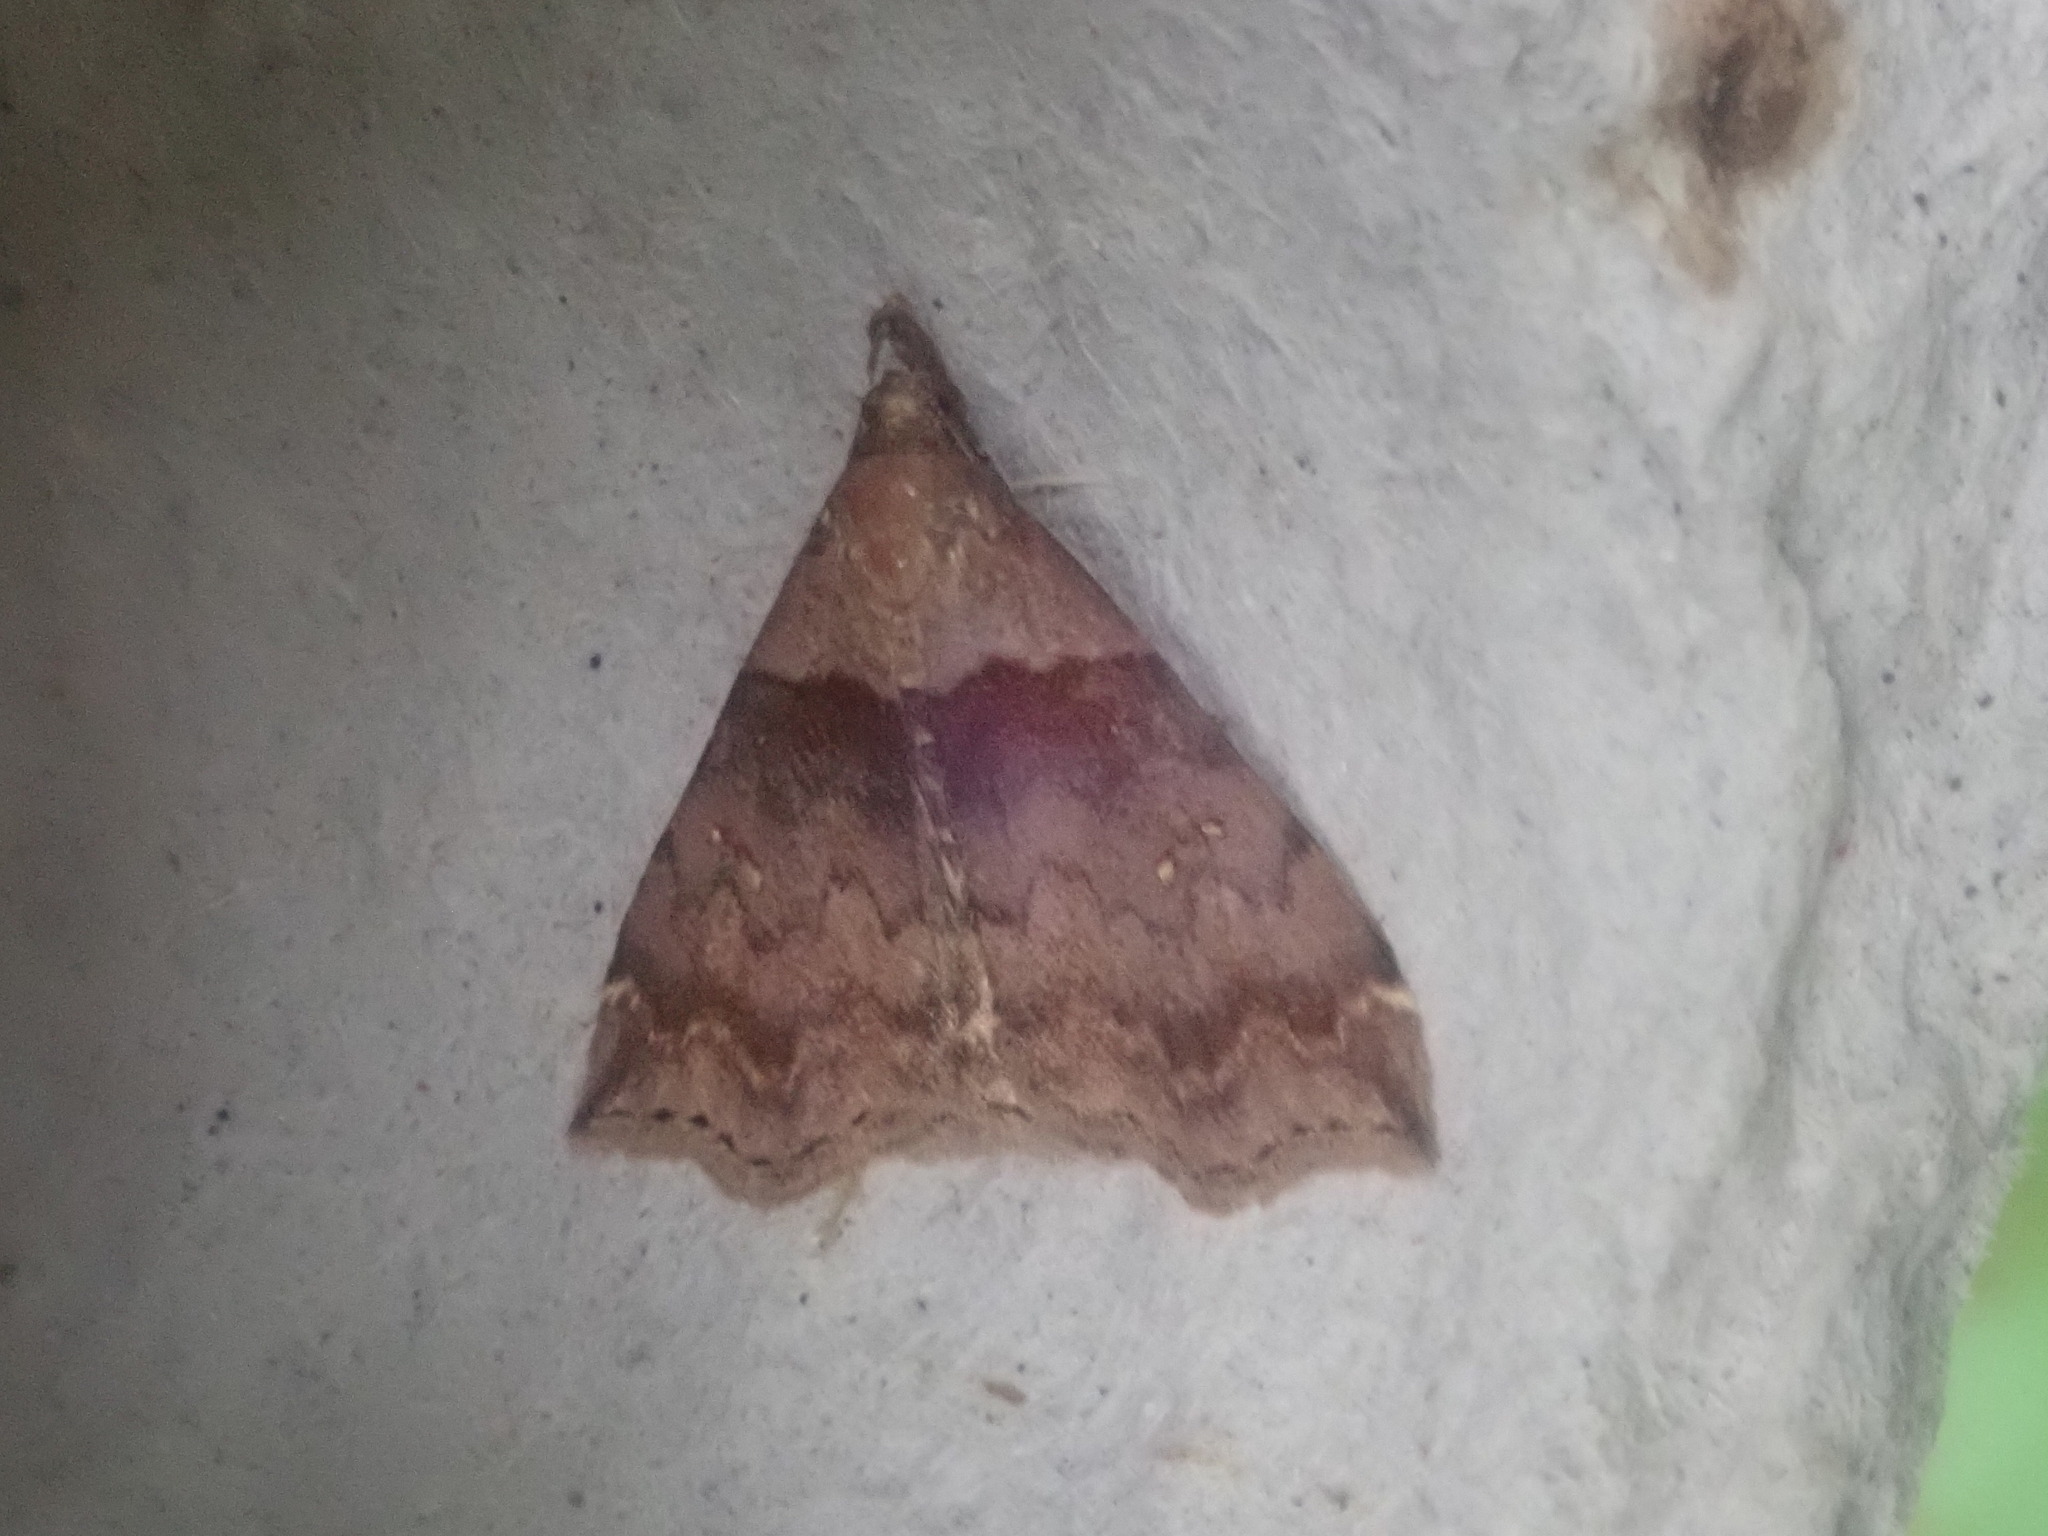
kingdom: Animalia
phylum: Arthropoda
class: Insecta
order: Lepidoptera
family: Erebidae
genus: Lascoria
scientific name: Lascoria ambigualis
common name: Ambiguous moth
